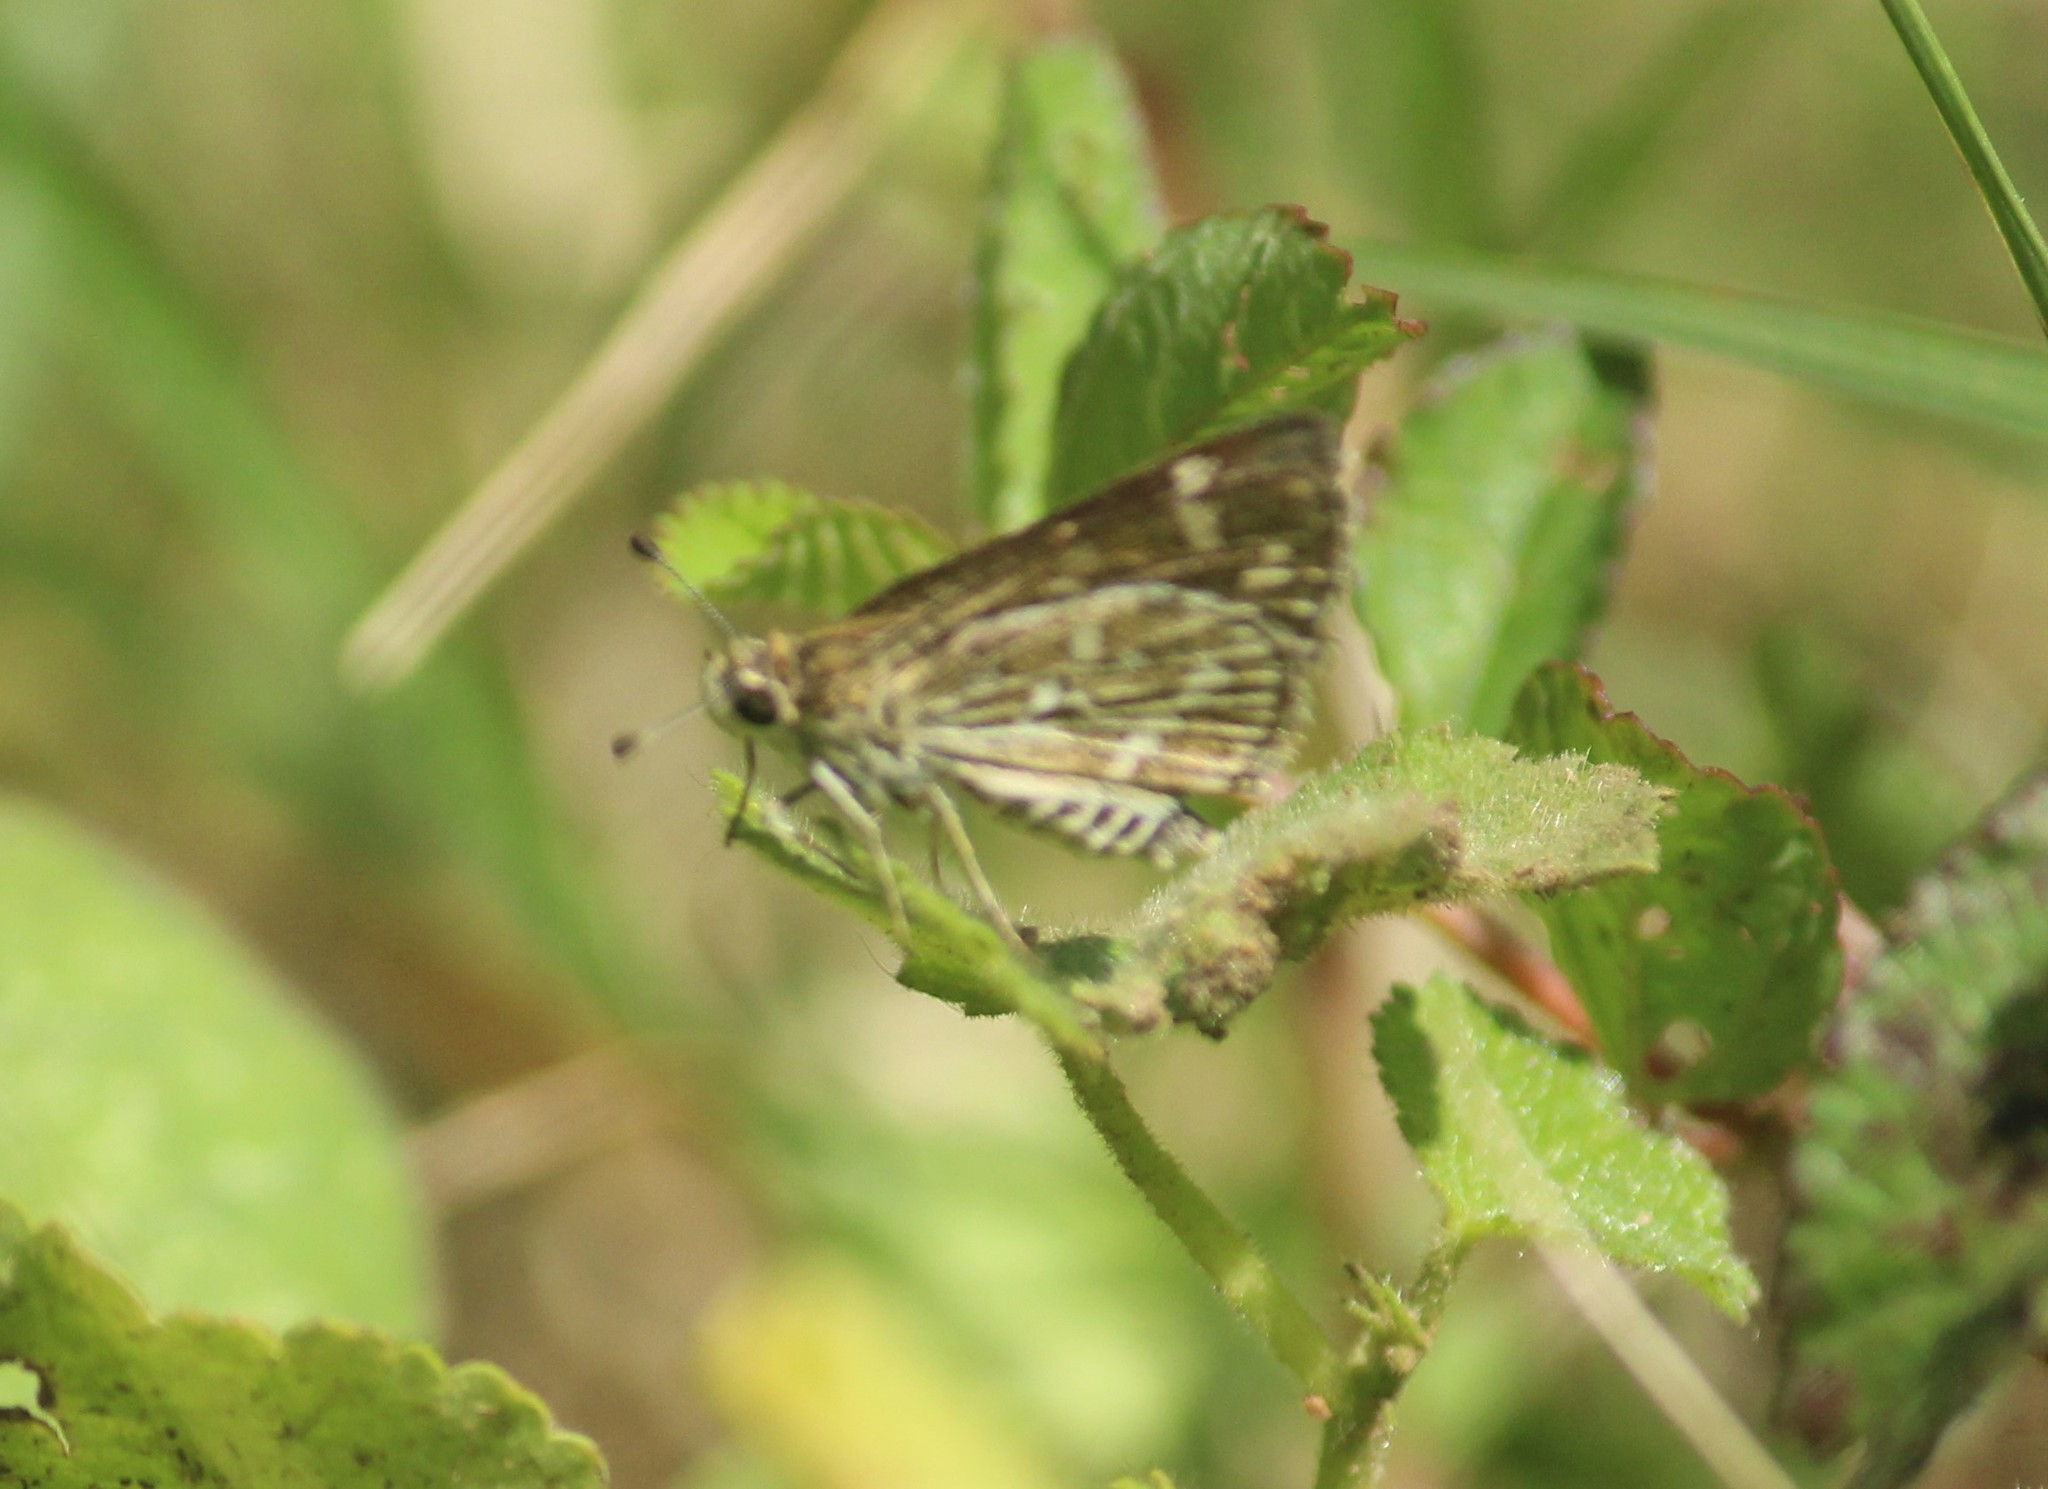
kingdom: Animalia
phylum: Arthropoda
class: Insecta
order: Lepidoptera
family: Hesperiidae
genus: Taractrocera
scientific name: Taractrocera maevius
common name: Common grass-dart
